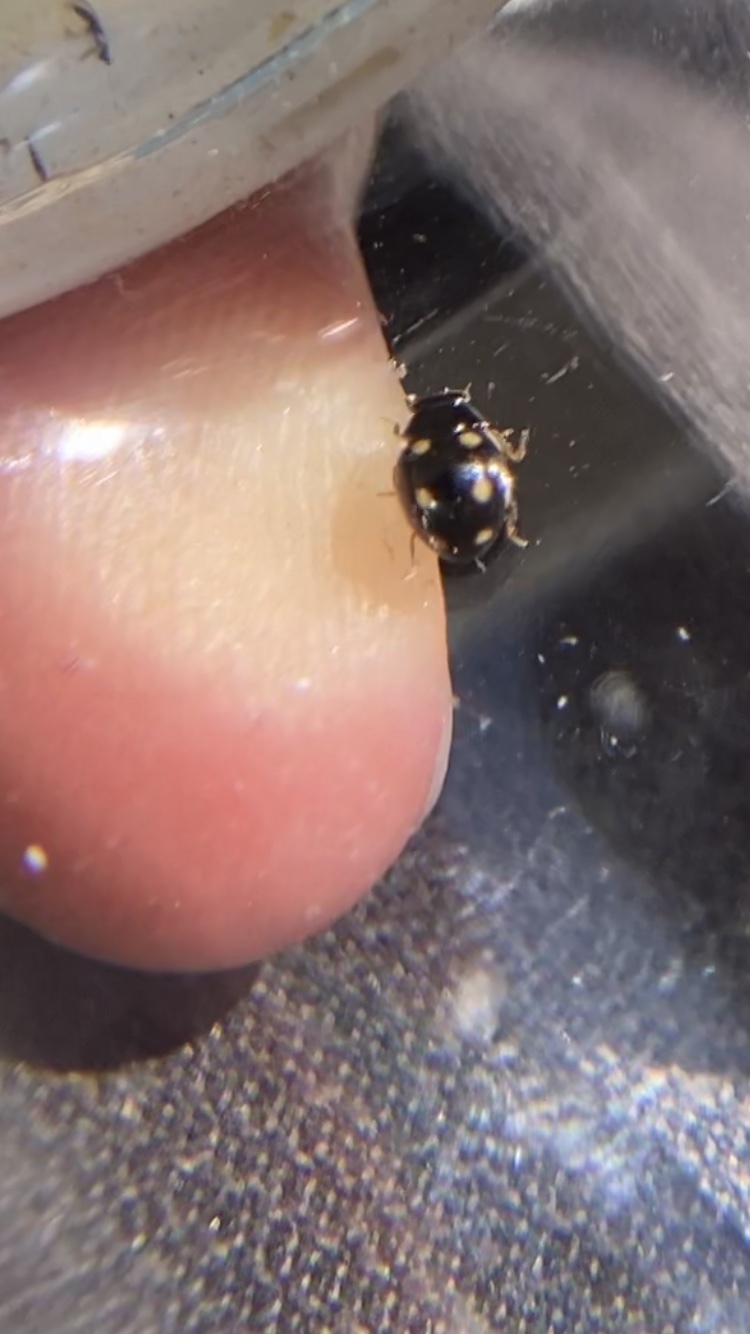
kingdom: Animalia
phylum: Arthropoda
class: Insecta
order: Coleoptera
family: Coccinellidae
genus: Hyperaspis
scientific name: Hyperaspis troglodytes
